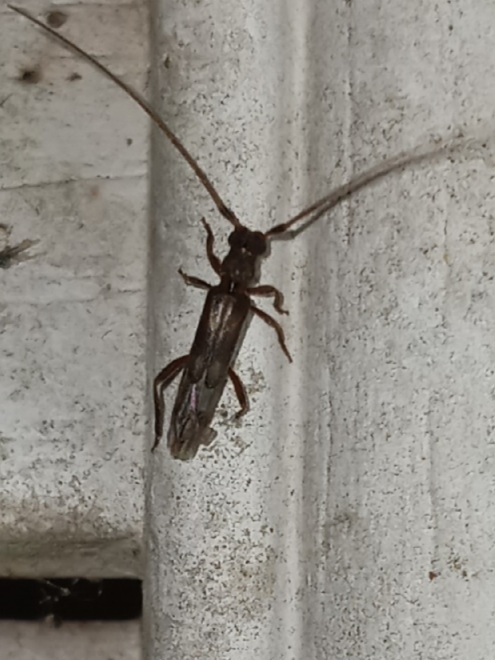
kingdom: Animalia
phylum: Arthropoda
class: Insecta
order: Coleoptera
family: Cerambycidae
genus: Methia
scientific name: Methia necydalea
